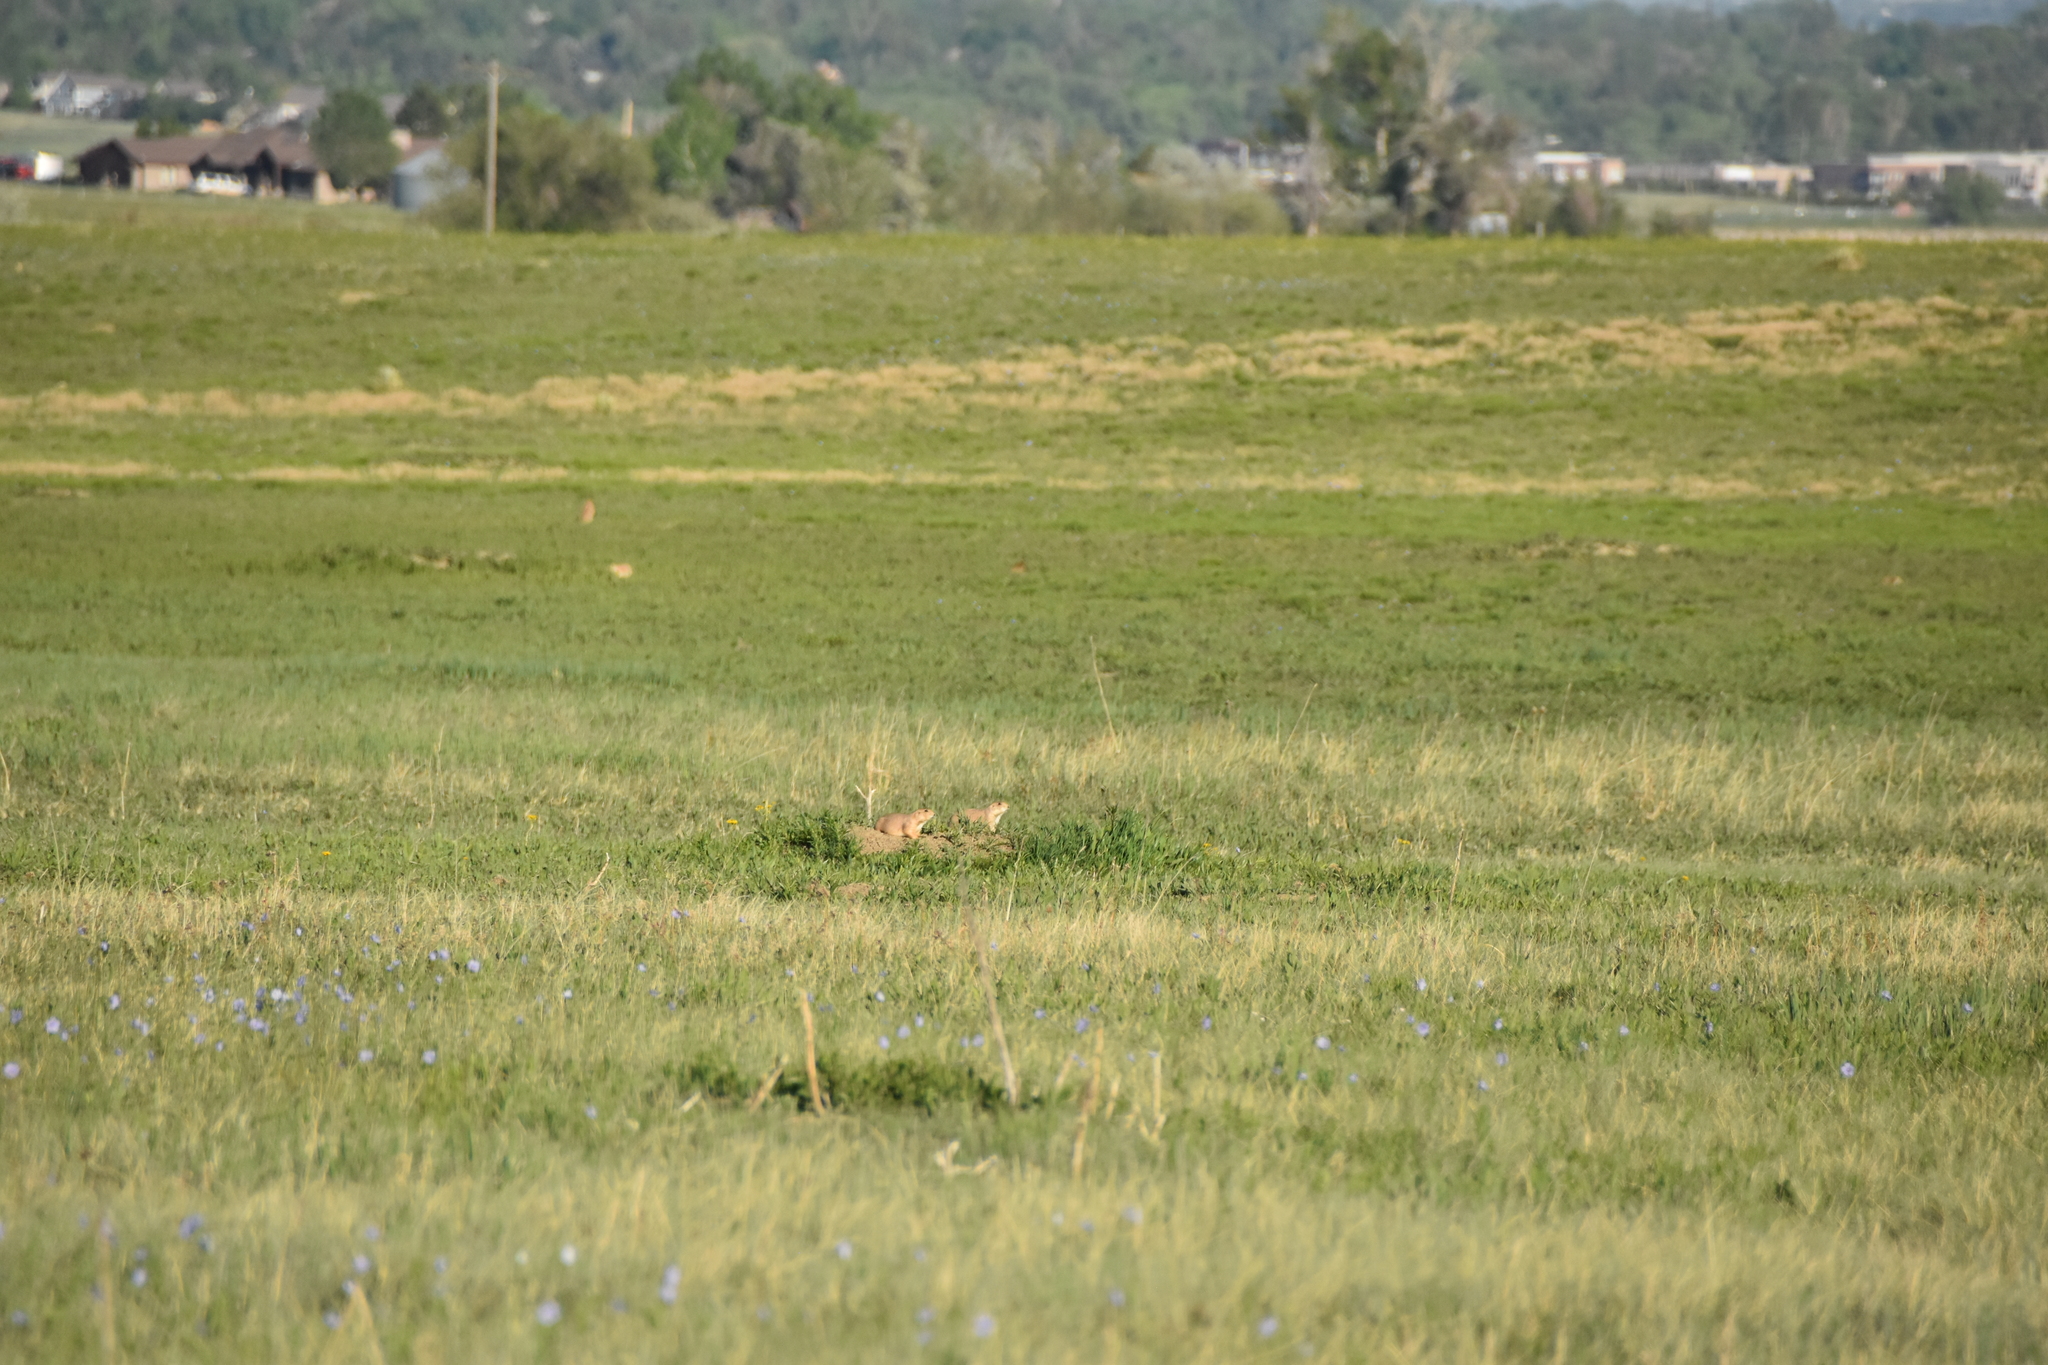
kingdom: Animalia
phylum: Chordata
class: Mammalia
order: Rodentia
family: Sciuridae
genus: Cynomys
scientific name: Cynomys ludovicianus
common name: Black-tailed prairie dog
